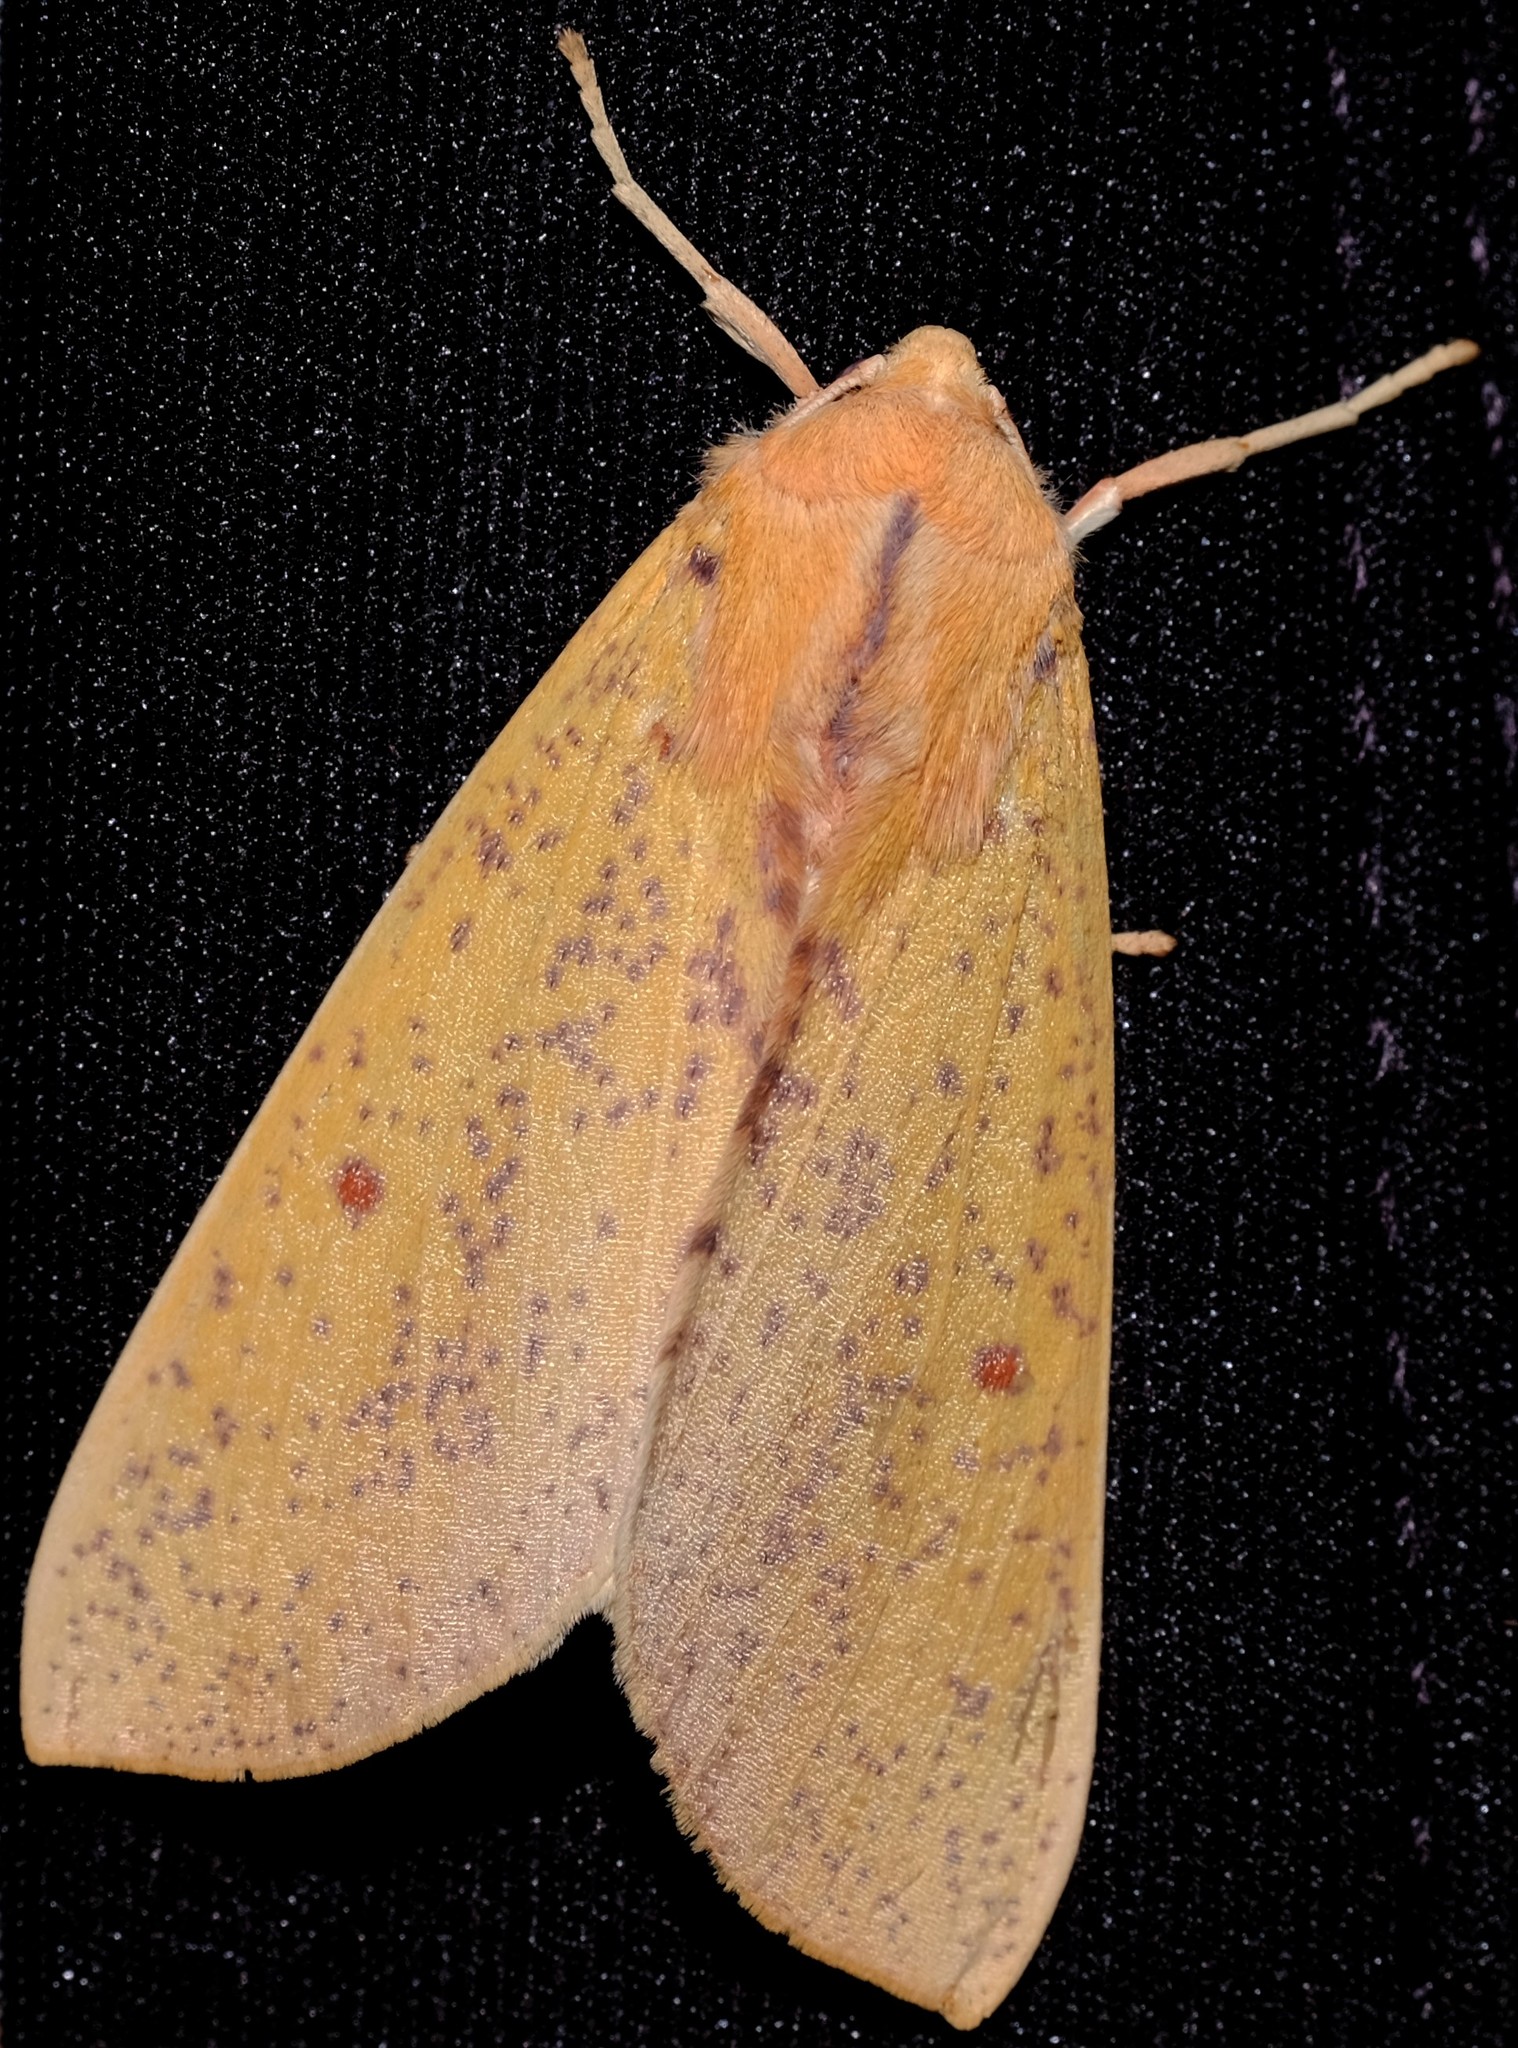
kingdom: Animalia
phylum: Arthropoda
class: Insecta
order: Lepidoptera
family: Geometridae
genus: Plesanemma
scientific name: Plesanemma fucata
